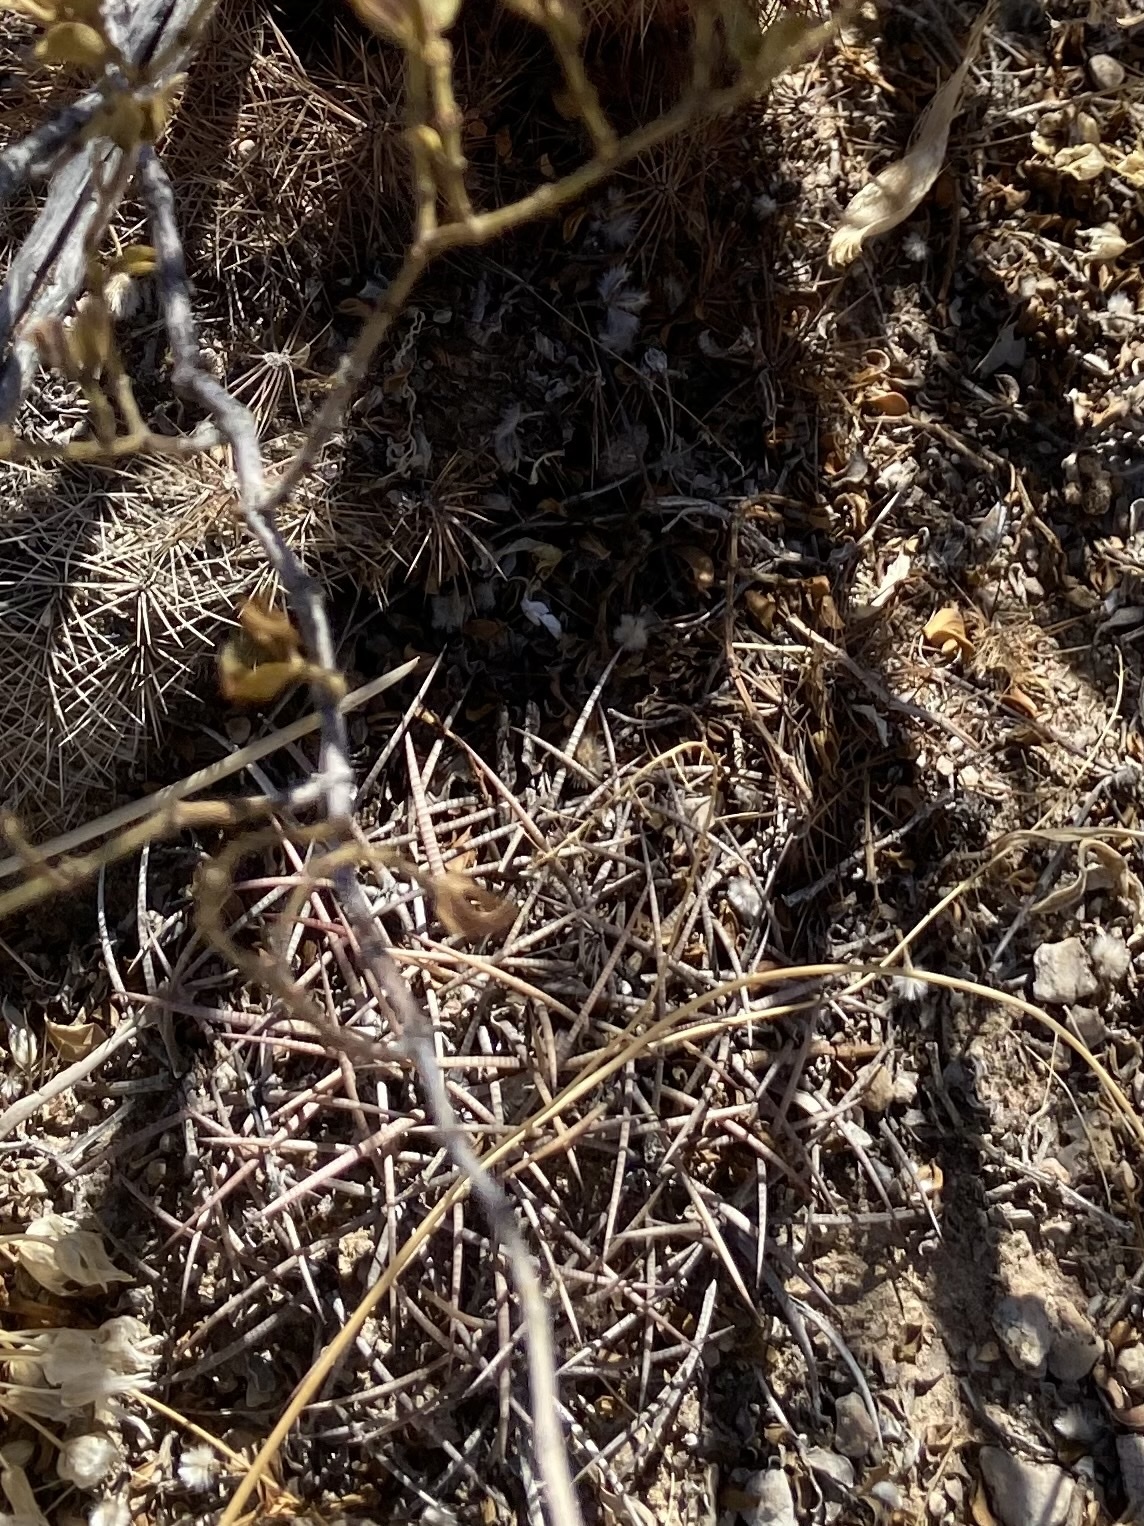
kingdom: Plantae
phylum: Tracheophyta
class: Magnoliopsida
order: Caryophyllales
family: Cactaceae
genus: Echinocactus
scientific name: Echinocactus horizonthalonius
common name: Devilshead
